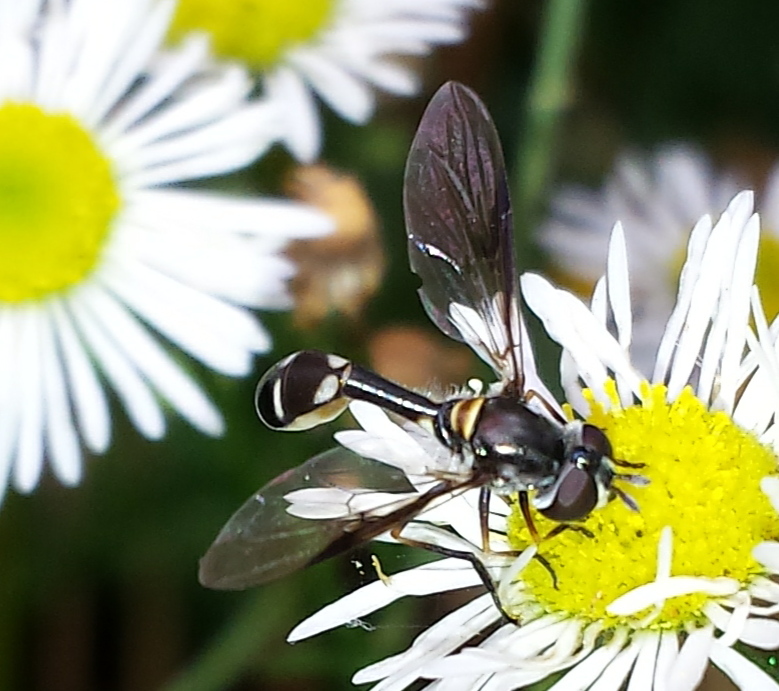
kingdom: Animalia
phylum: Arthropoda
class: Insecta
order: Diptera
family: Syrphidae
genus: Dioprosopa
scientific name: Dioprosopa clavatus
